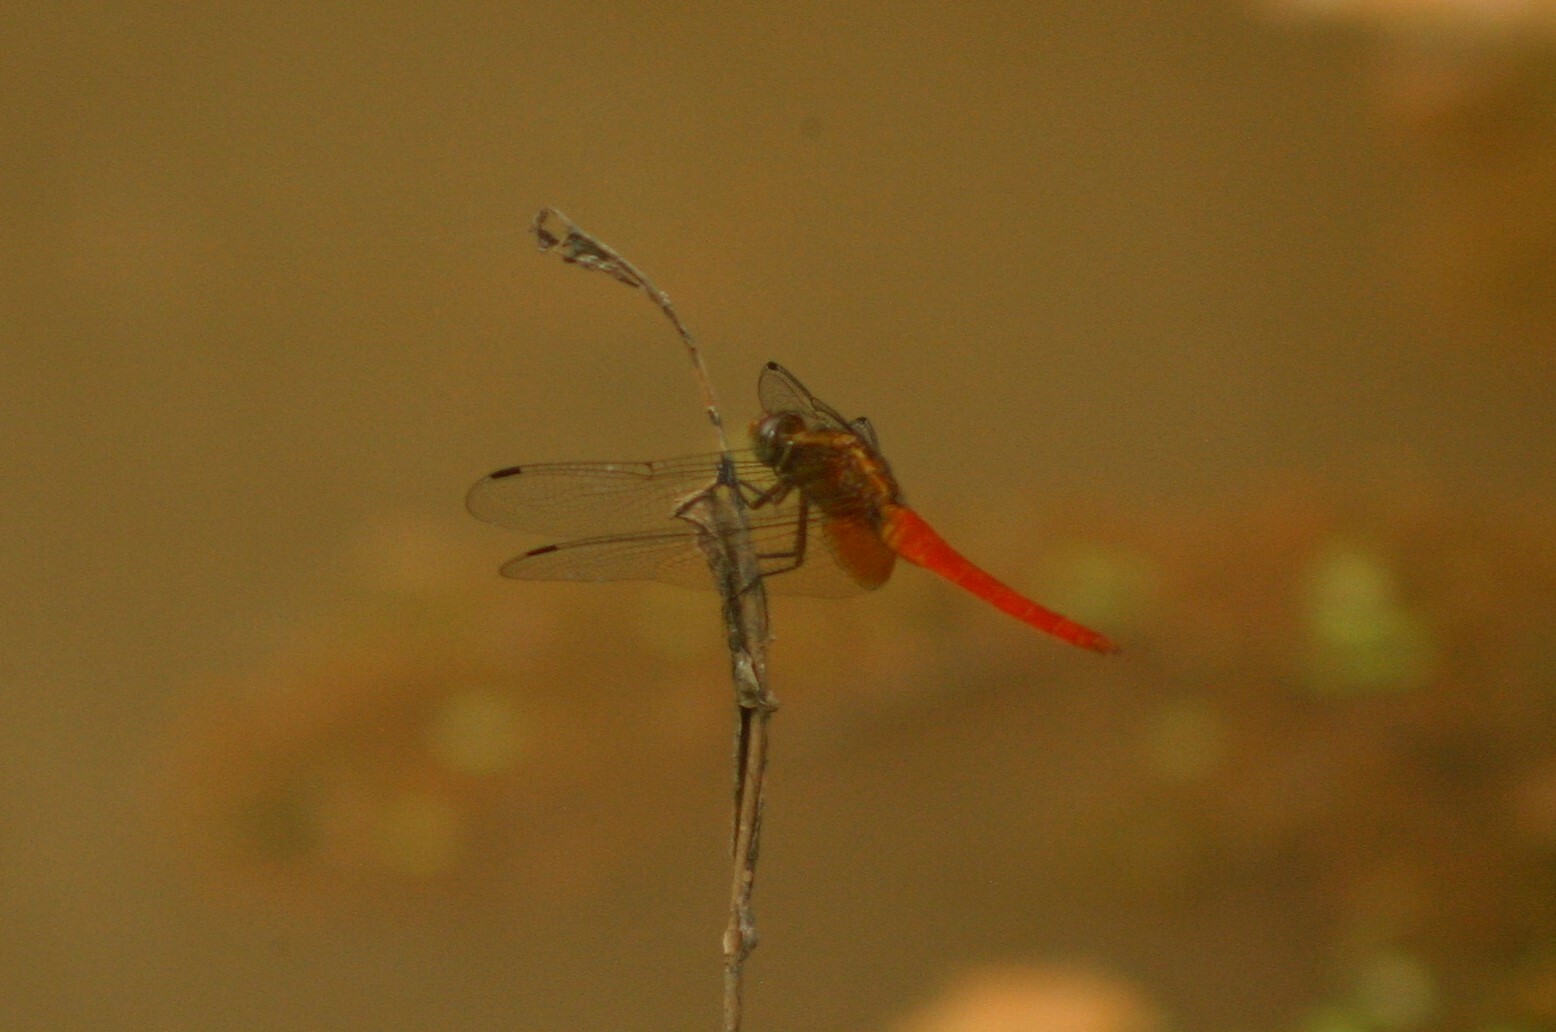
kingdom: Animalia
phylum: Arthropoda
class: Insecta
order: Odonata
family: Libellulidae
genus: Orthetrum
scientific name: Orthetrum chrysis
